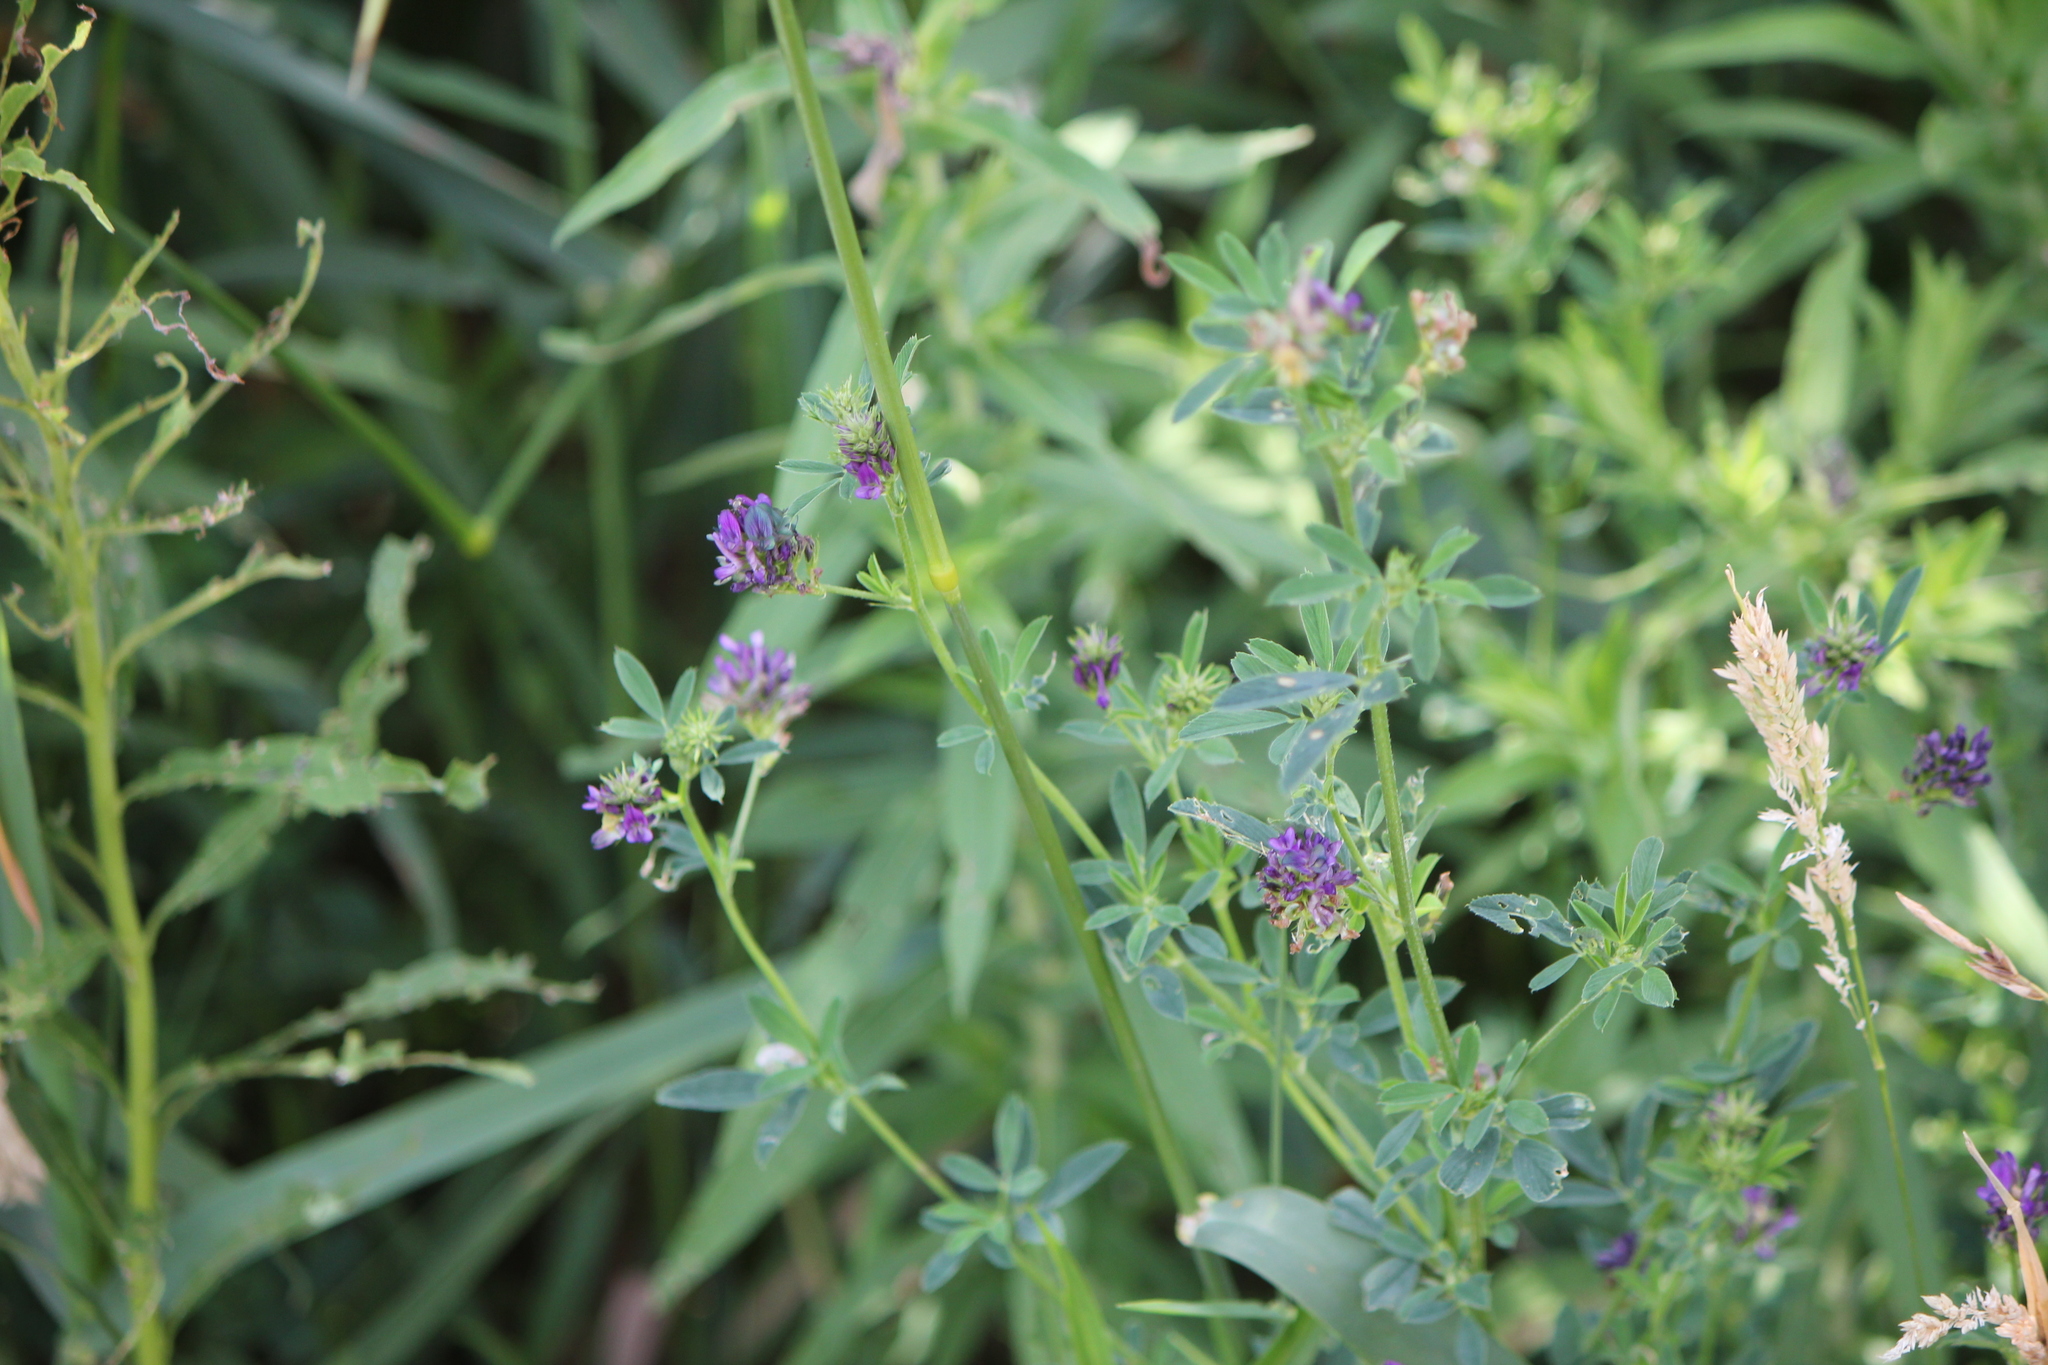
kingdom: Plantae
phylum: Tracheophyta
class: Magnoliopsida
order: Fabales
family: Fabaceae
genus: Medicago
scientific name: Medicago sativa
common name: Alfalfa
